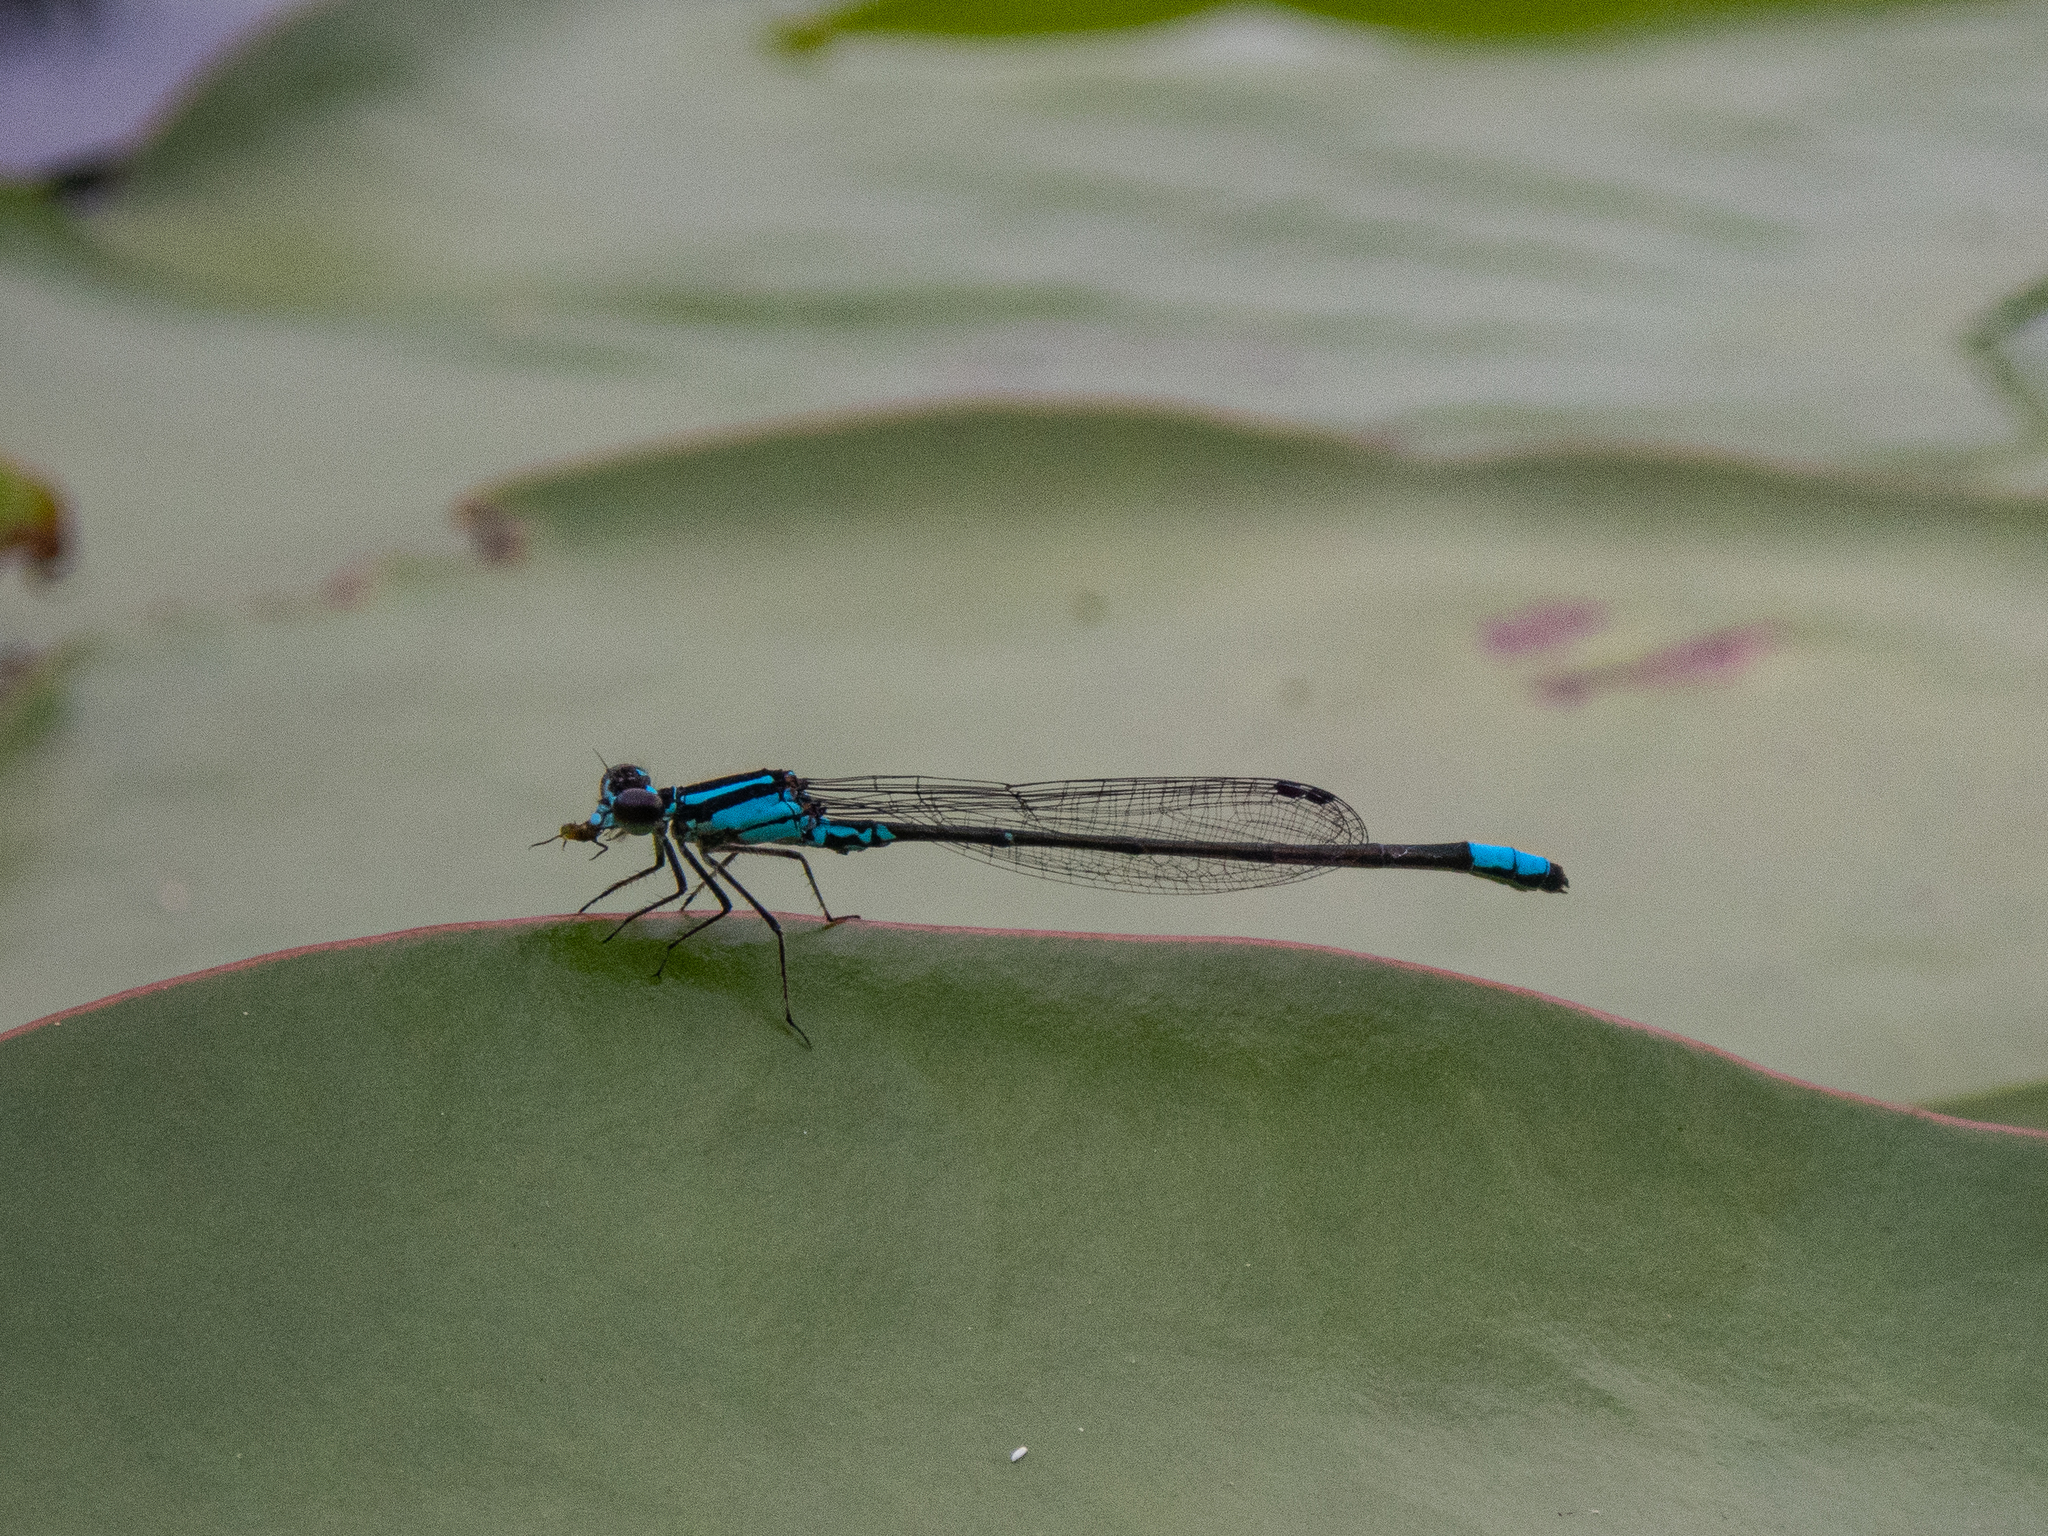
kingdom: Animalia
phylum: Arthropoda
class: Insecta
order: Odonata
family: Coenagrionidae
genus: Enallagma
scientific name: Enallagma geminatum
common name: Skimming bluet
